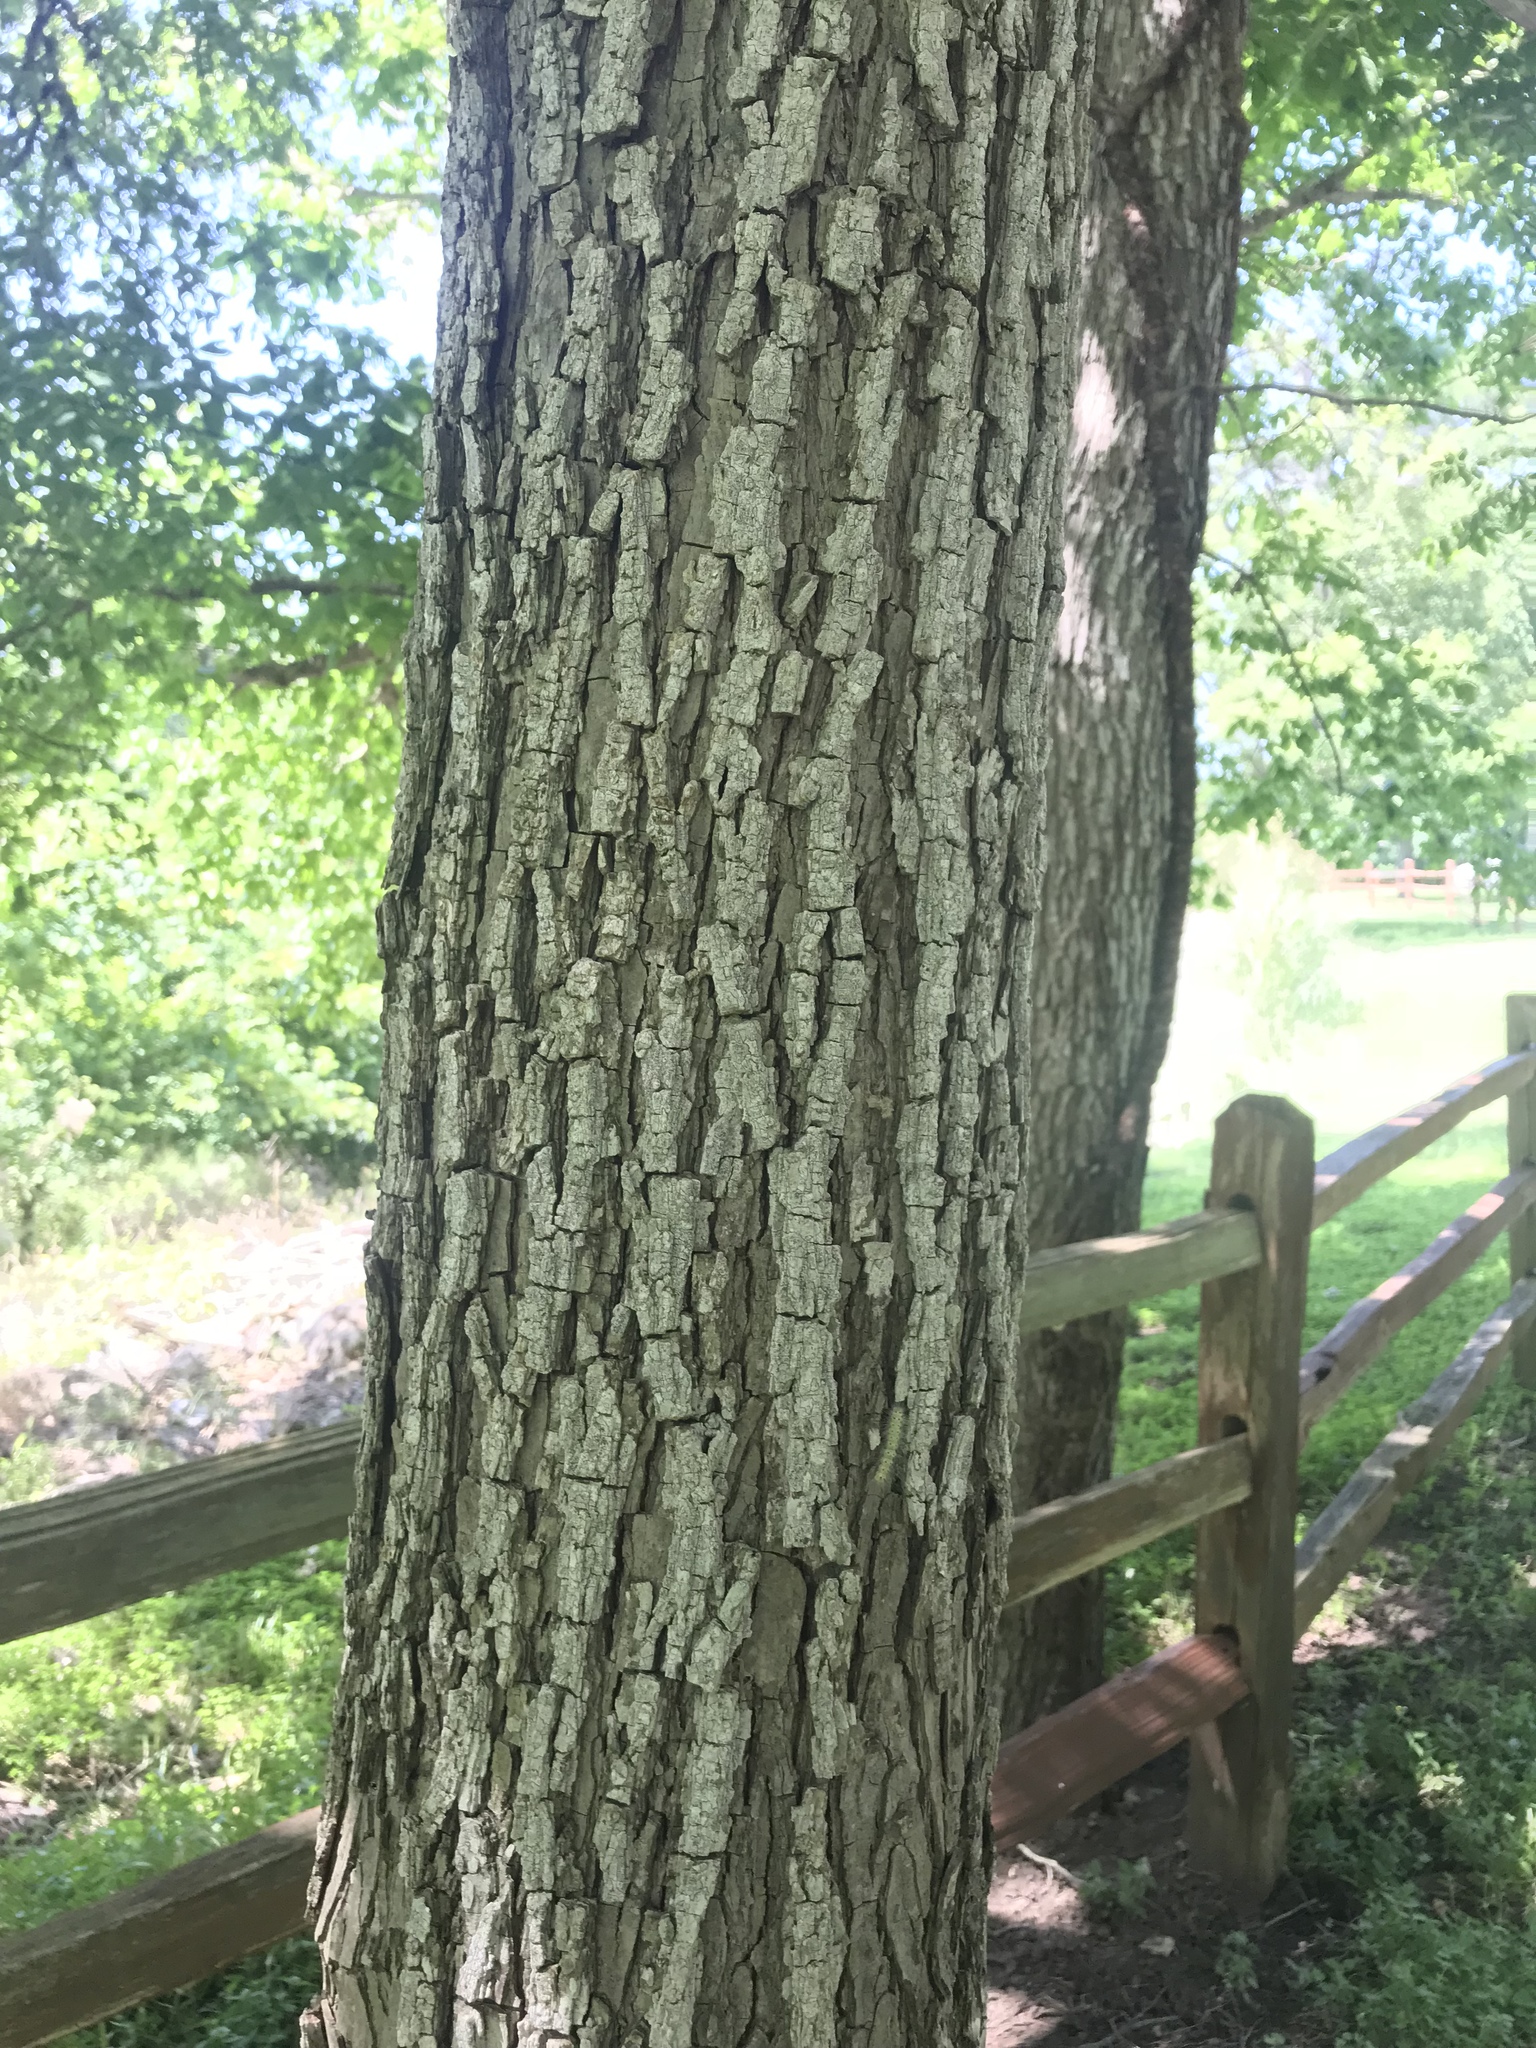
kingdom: Plantae
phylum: Tracheophyta
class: Magnoliopsida
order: Fagales
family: Juglandaceae
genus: Carya
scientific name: Carya illinoinensis
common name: Pecan
